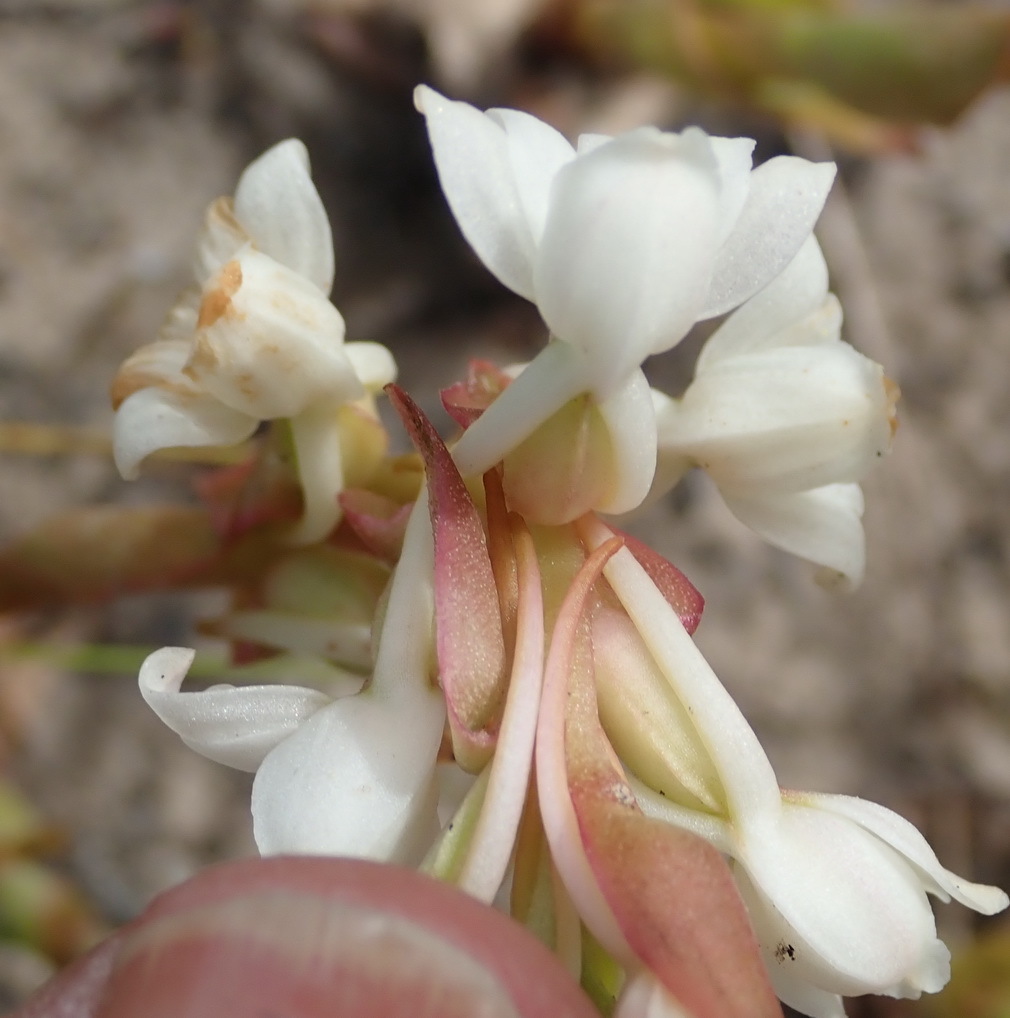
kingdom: Plantae
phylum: Tracheophyta
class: Liliopsida
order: Asparagales
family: Orchidaceae
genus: Satyrium
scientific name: Satyrium acuminatum
